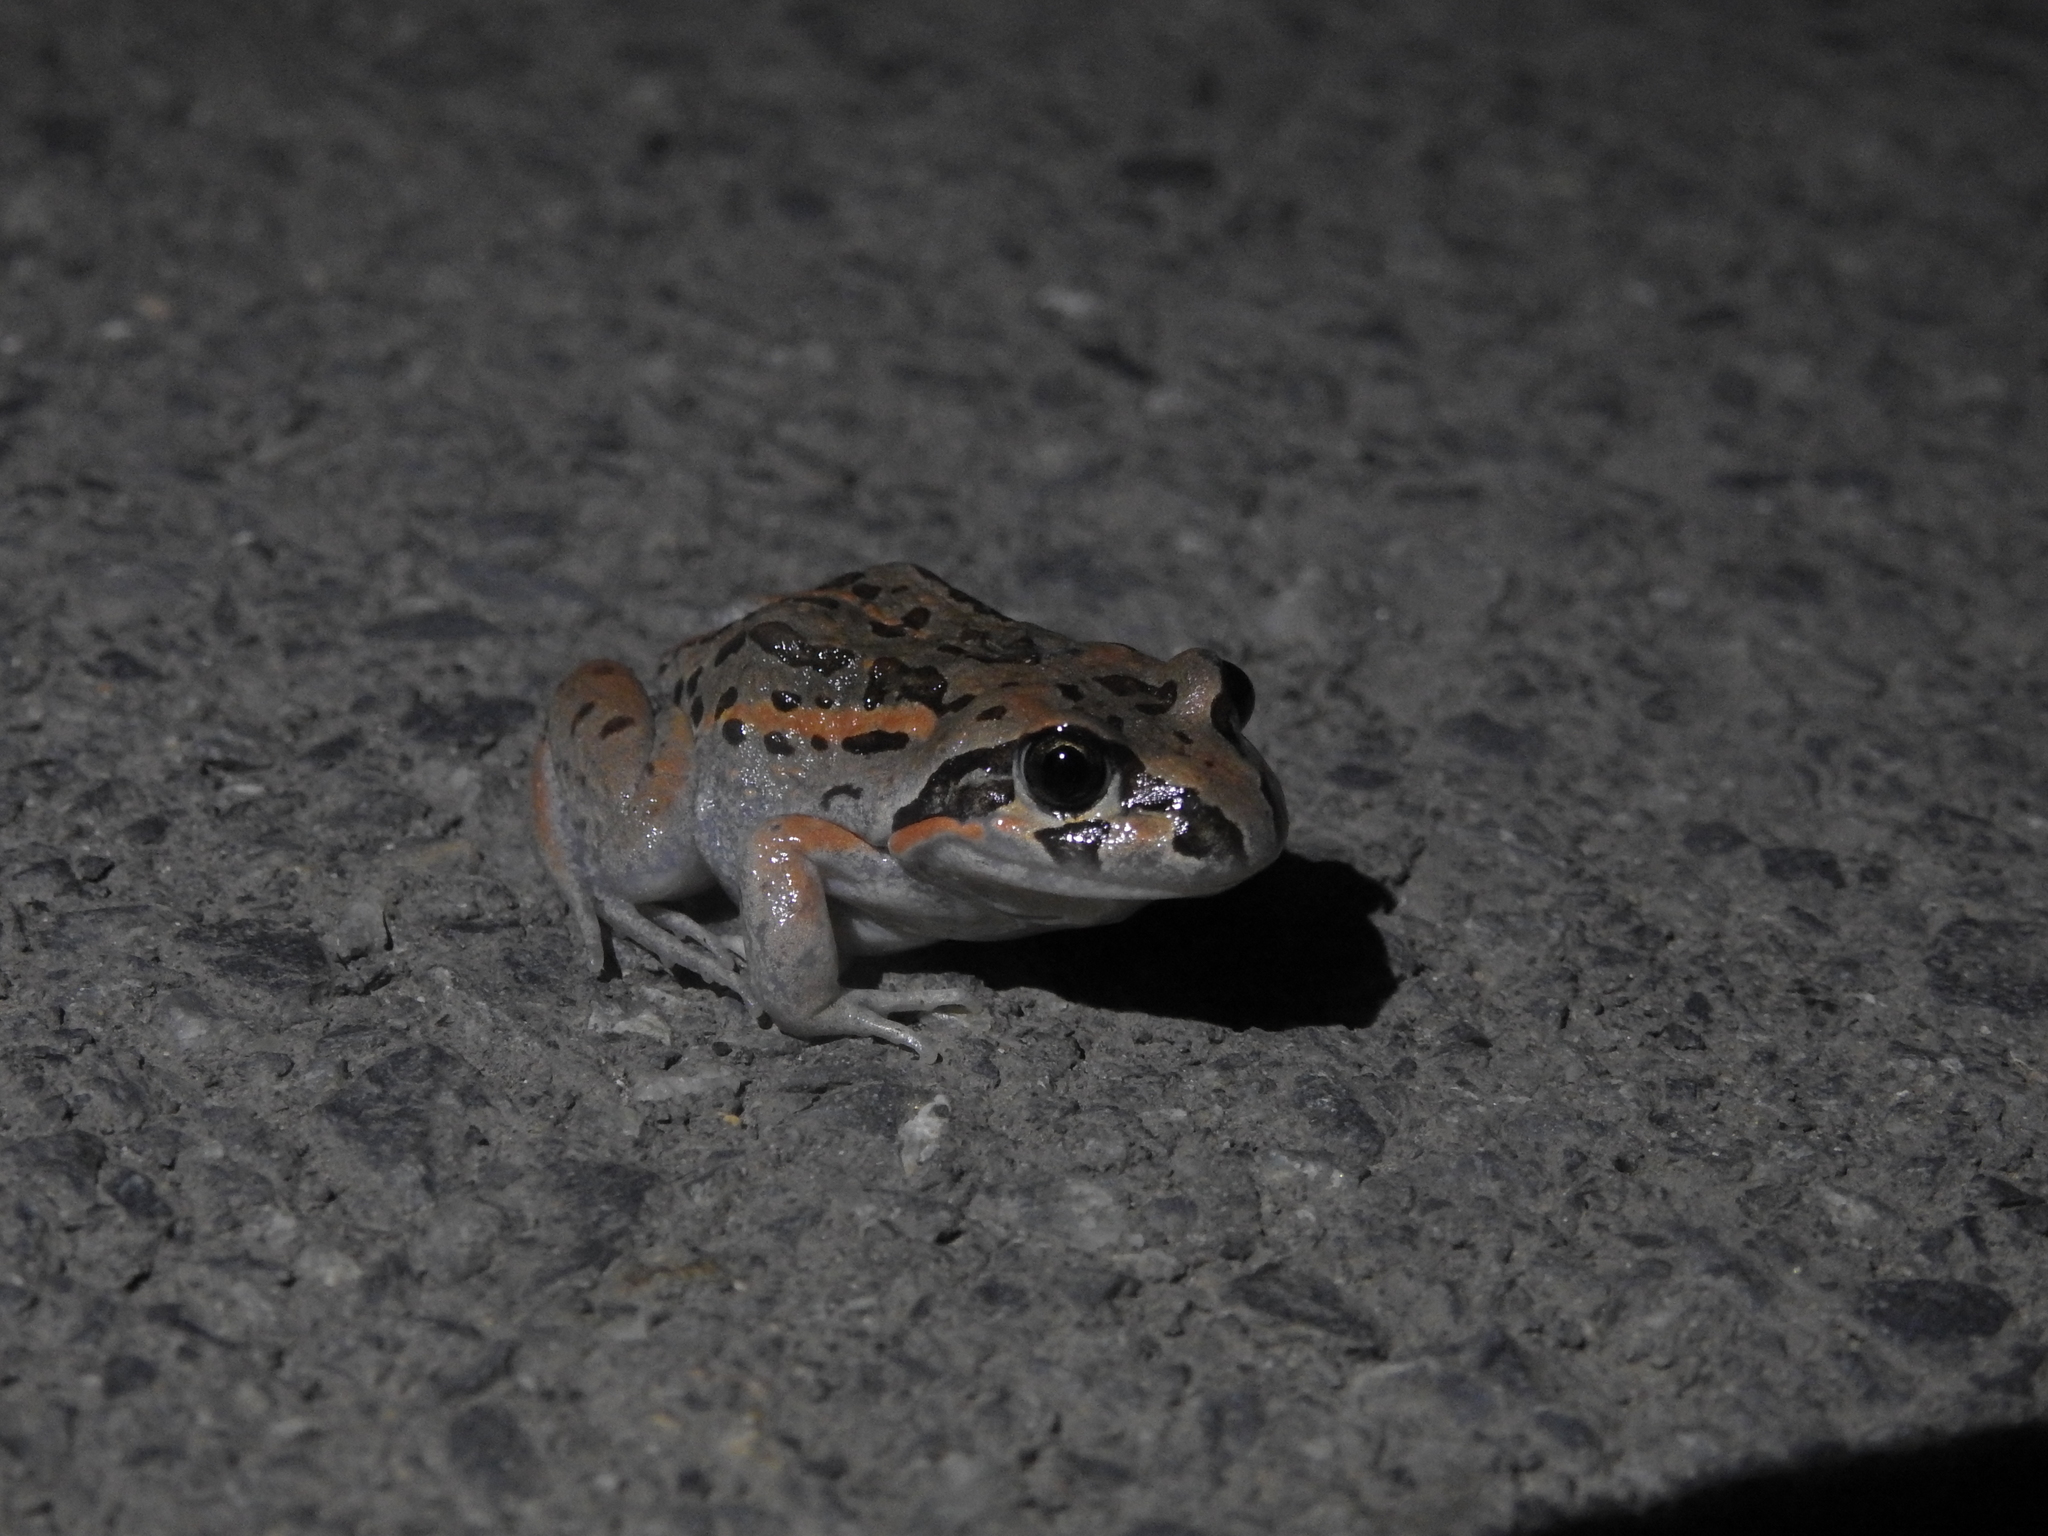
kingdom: Animalia
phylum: Chordata
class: Amphibia
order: Anura
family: Limnodynastidae
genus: Limnodynastes
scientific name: Limnodynastes salmini
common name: Salmon-striped frog
